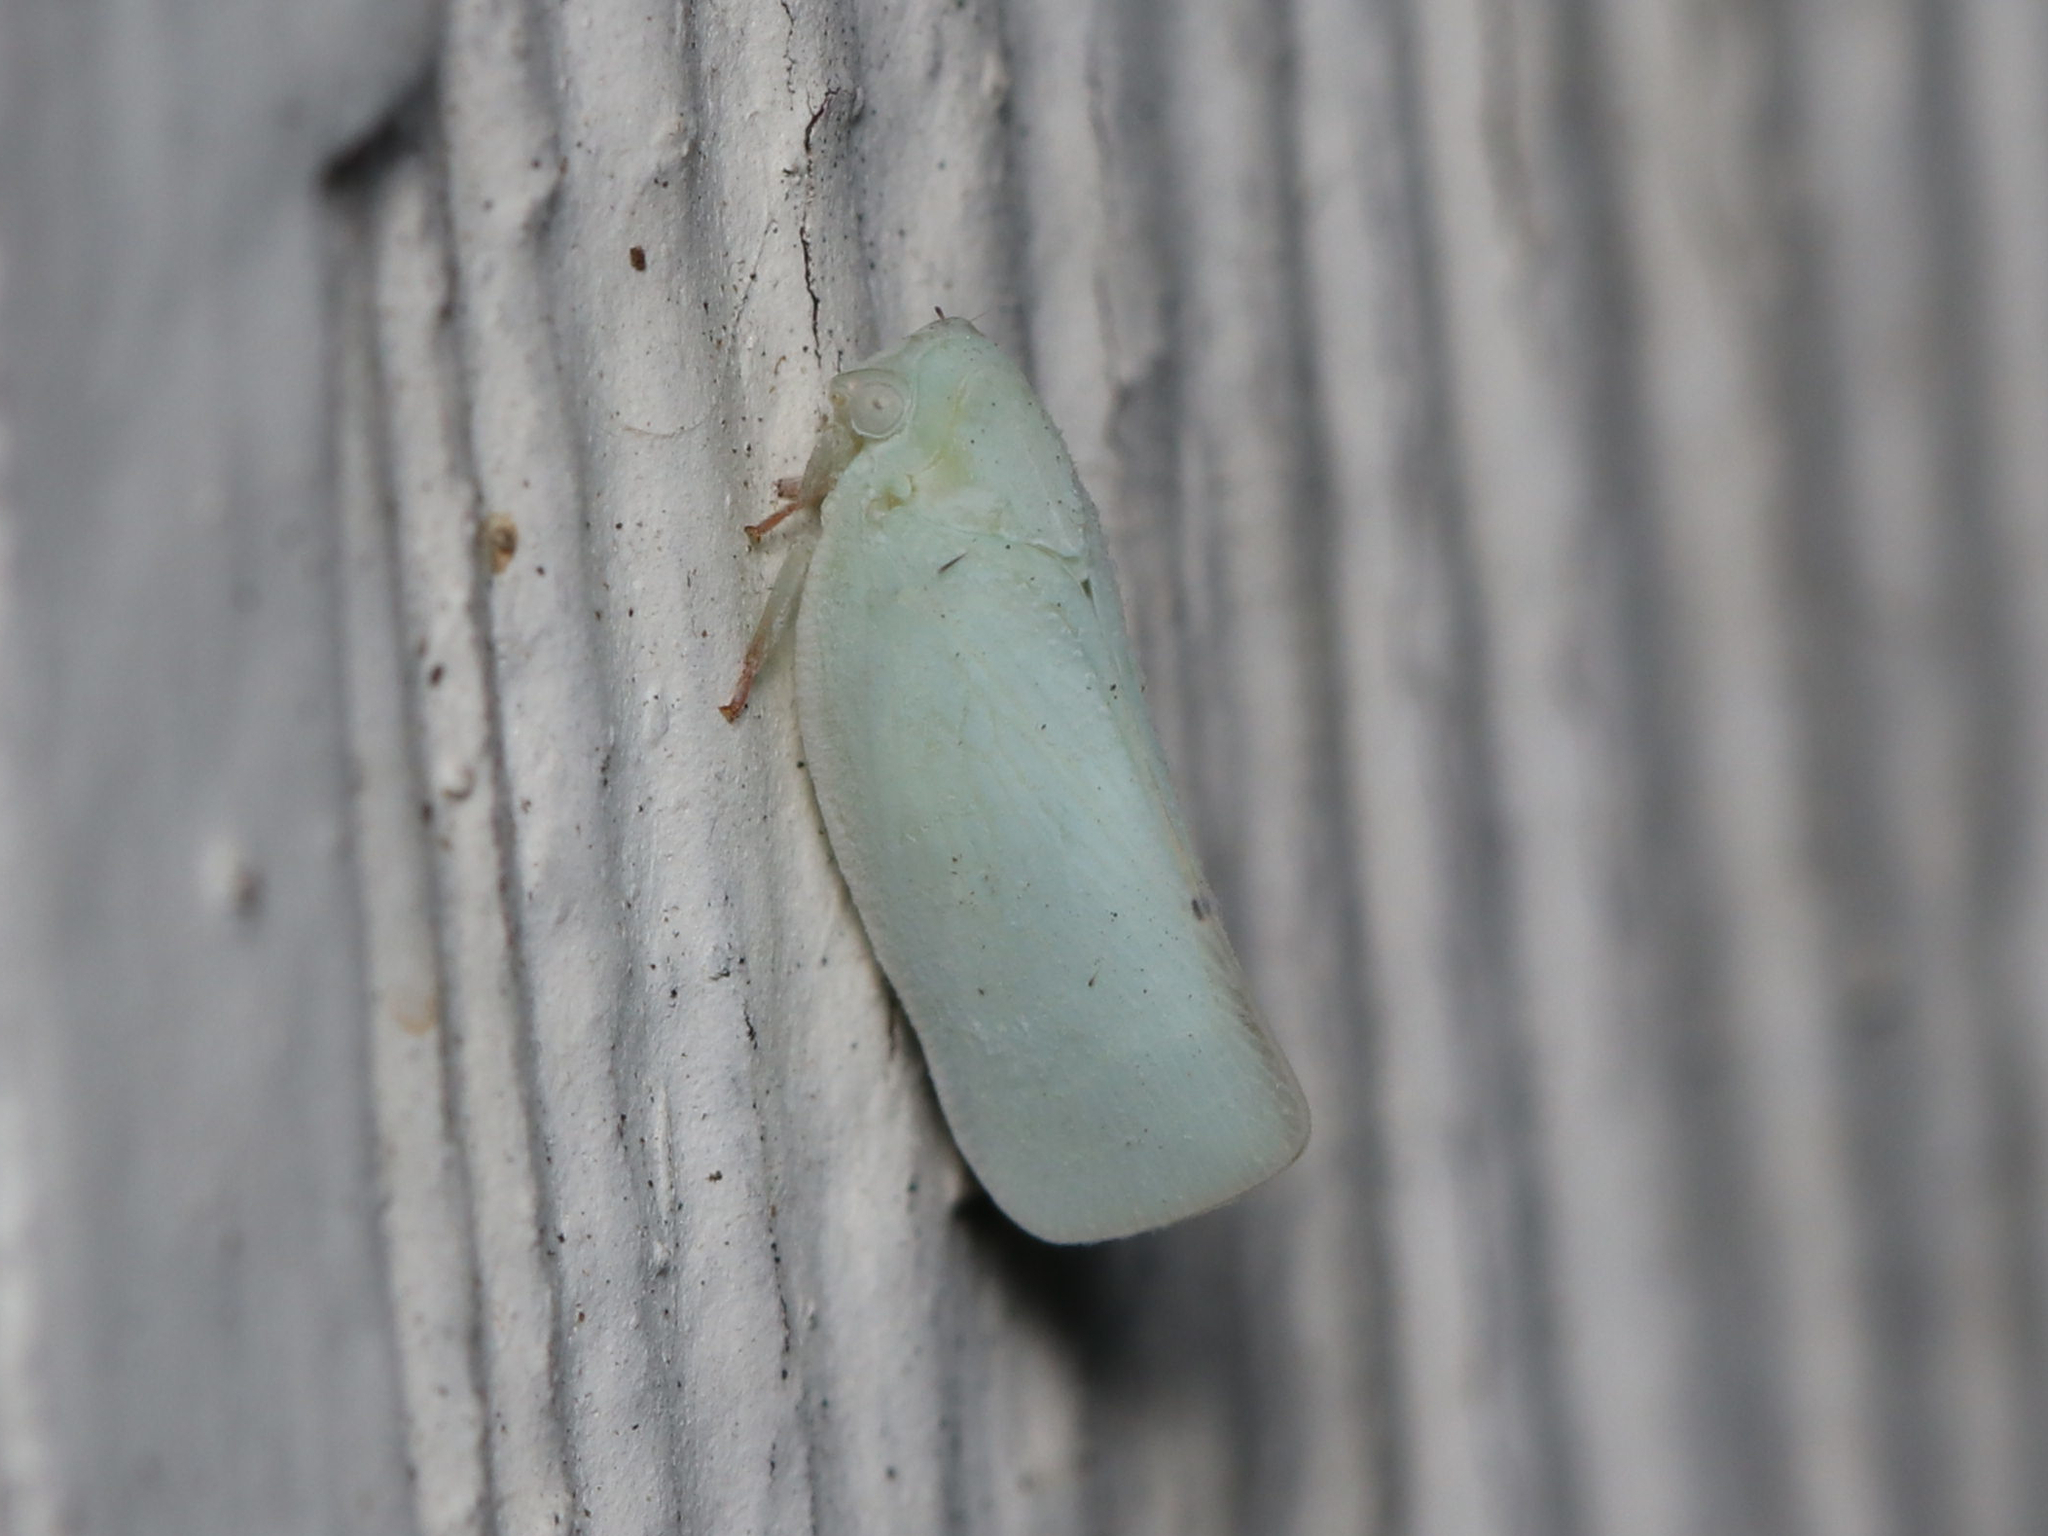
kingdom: Animalia
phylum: Arthropoda
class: Insecta
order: Hemiptera
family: Flatidae
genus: Flatormenis
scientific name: Flatormenis proxima
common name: Northern flatid planthopper
